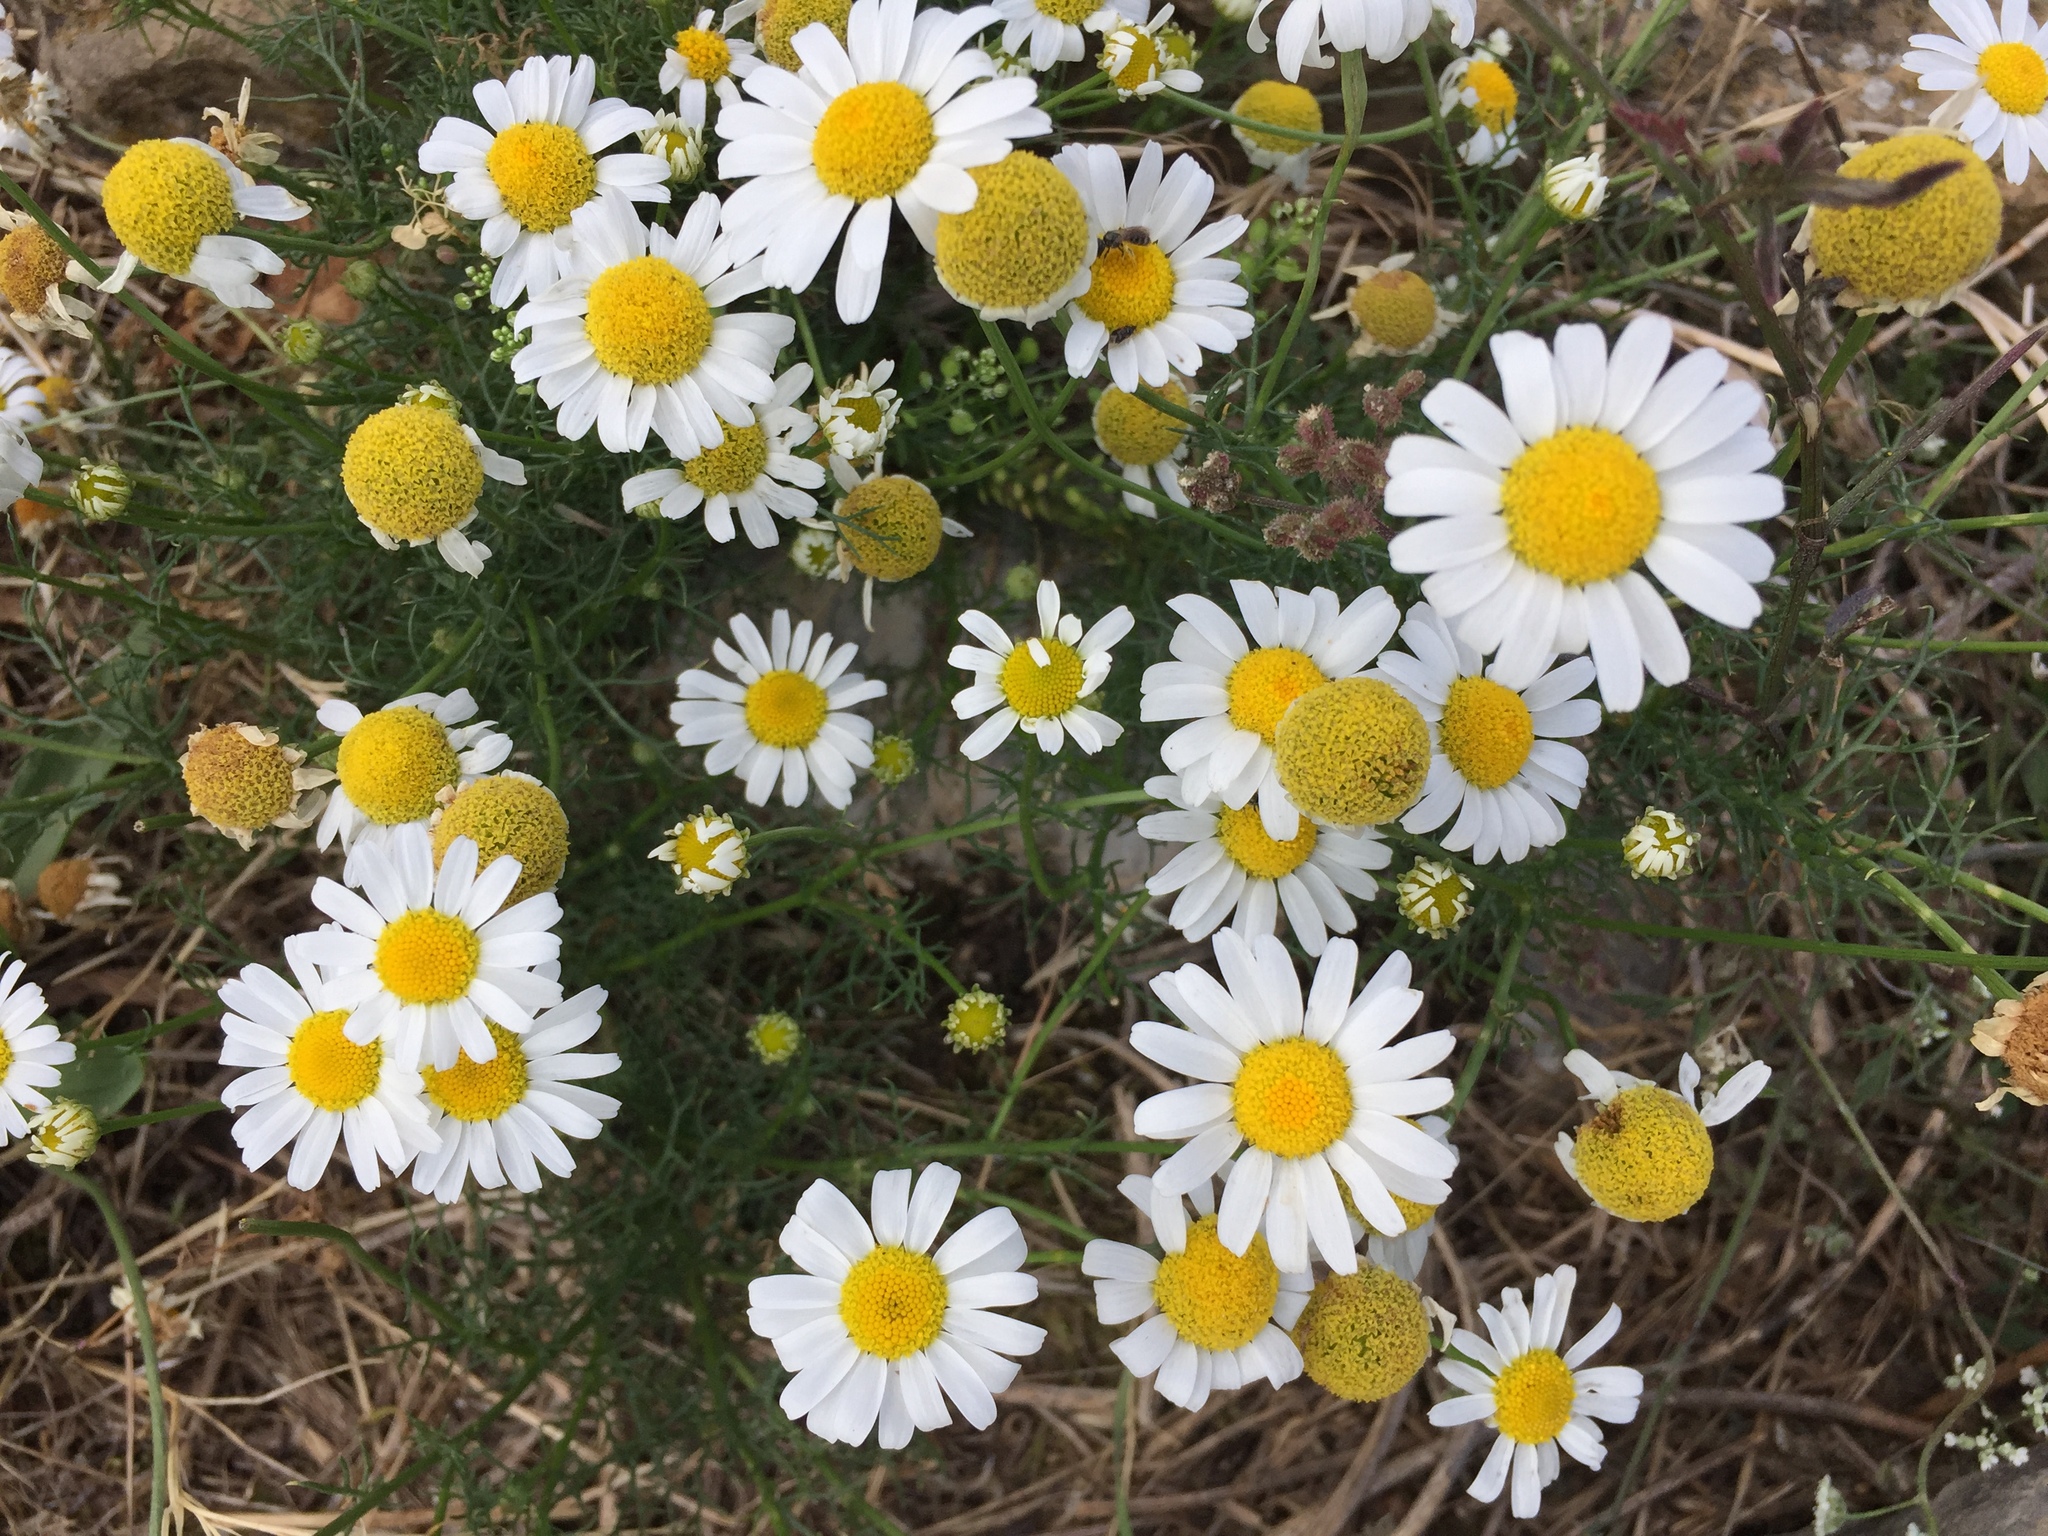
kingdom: Plantae
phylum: Tracheophyta
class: Magnoliopsida
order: Asterales
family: Asteraceae
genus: Matricaria
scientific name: Matricaria chamomilla
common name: Scented mayweed
